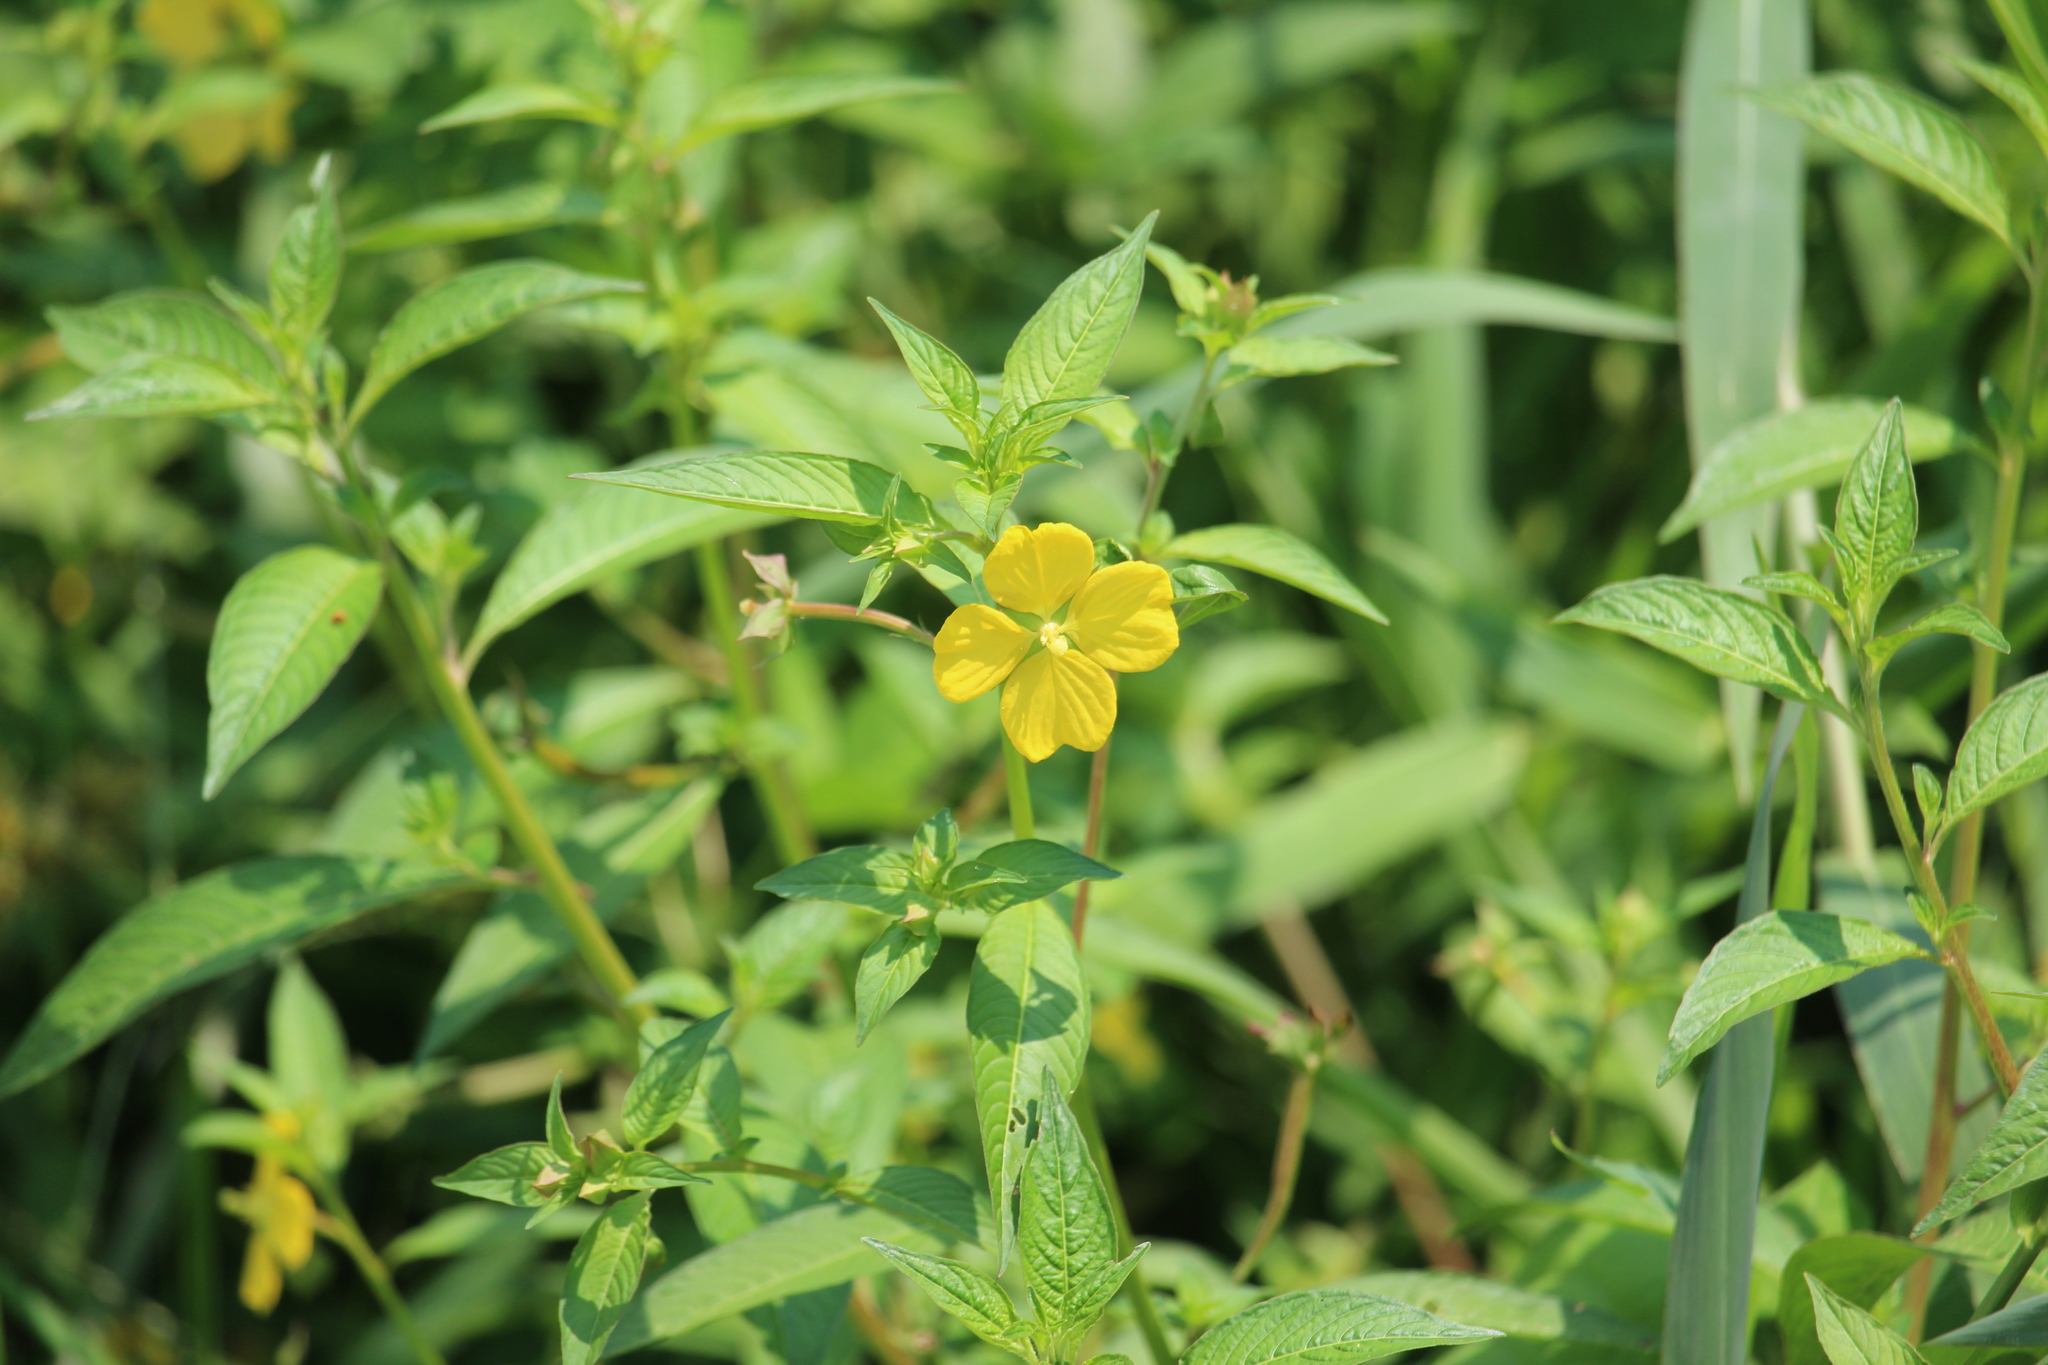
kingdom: Plantae
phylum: Tracheophyta
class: Magnoliopsida
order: Myrtales
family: Onagraceae
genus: Ludwigia
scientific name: Ludwigia octovalvis
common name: Water-primrose
